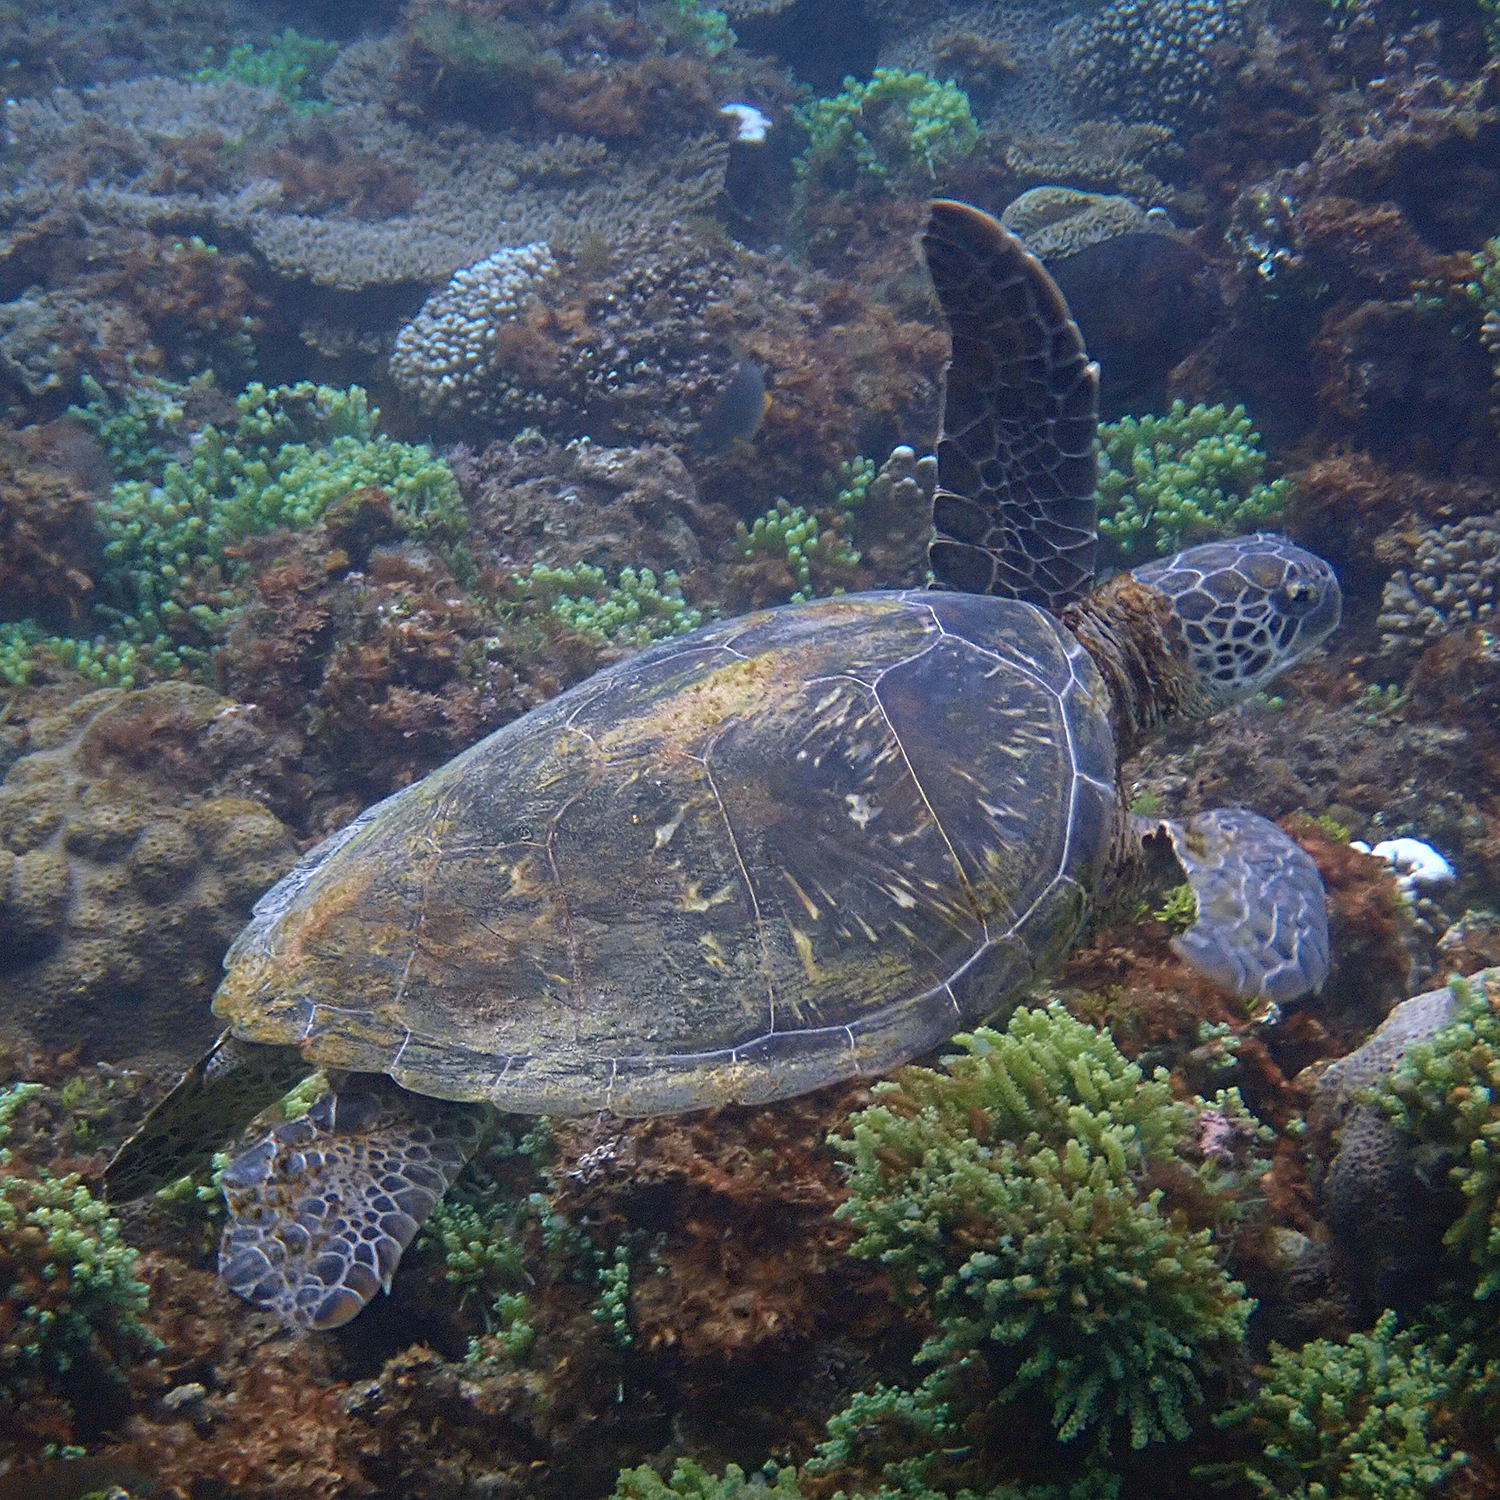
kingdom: Animalia
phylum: Chordata
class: Testudines
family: Cheloniidae
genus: Chelonia
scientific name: Chelonia mydas
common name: Green turtle
